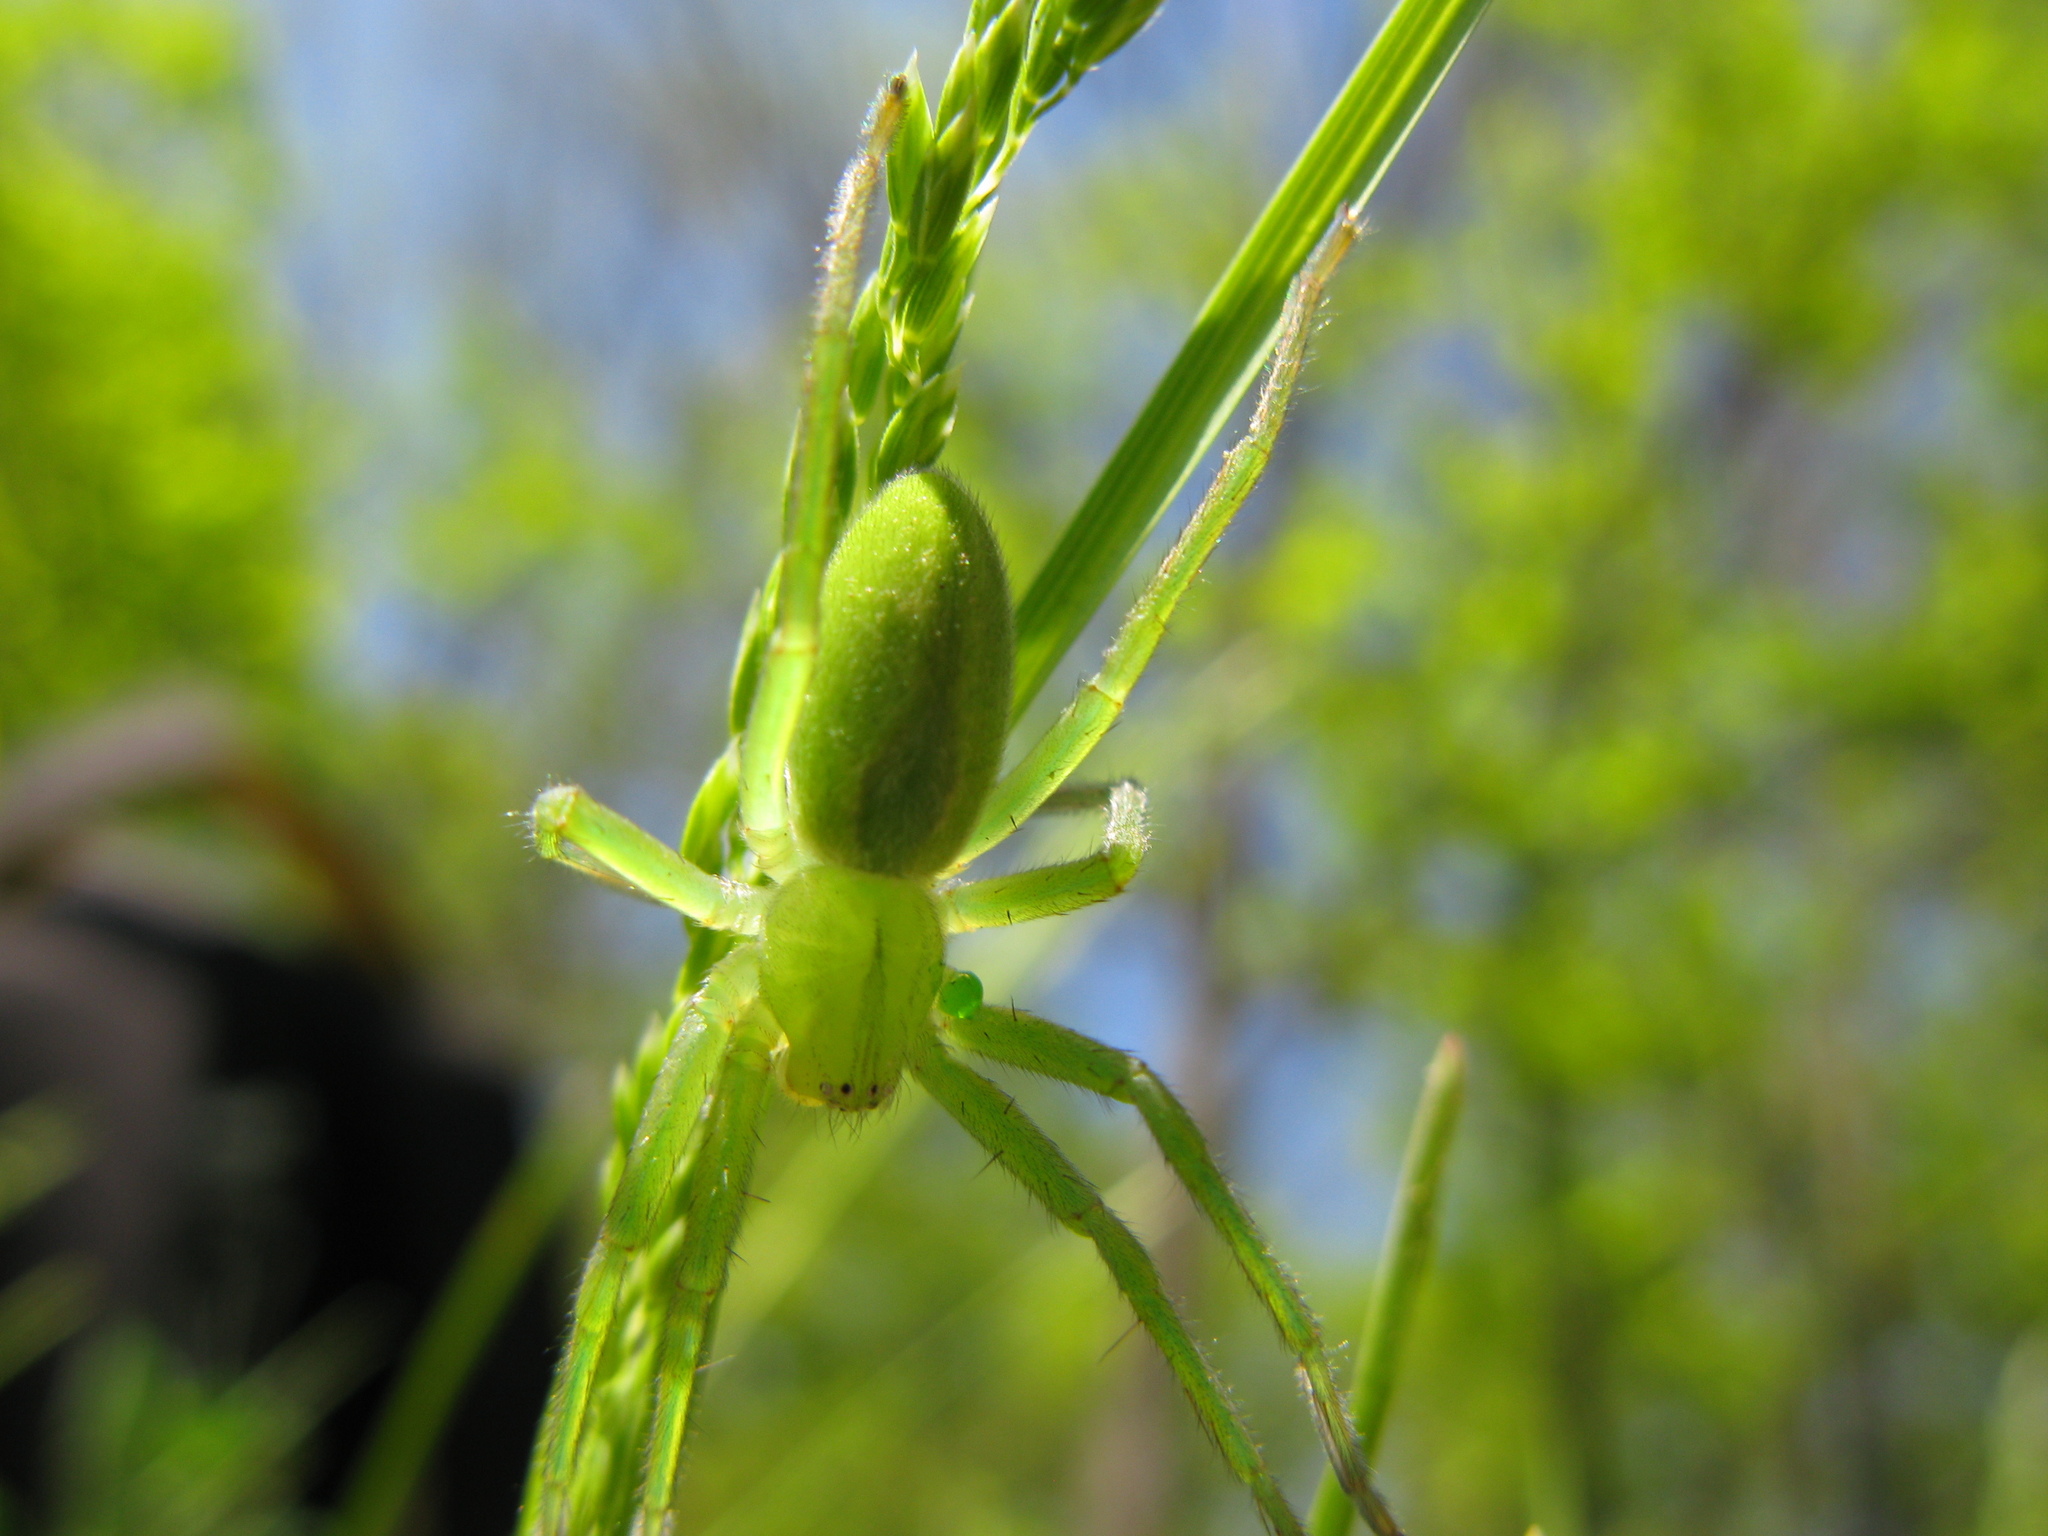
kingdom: Animalia
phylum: Arthropoda
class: Arachnida
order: Araneae
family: Sparassidae
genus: Micrommata
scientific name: Micrommata virescens
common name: Green spider
